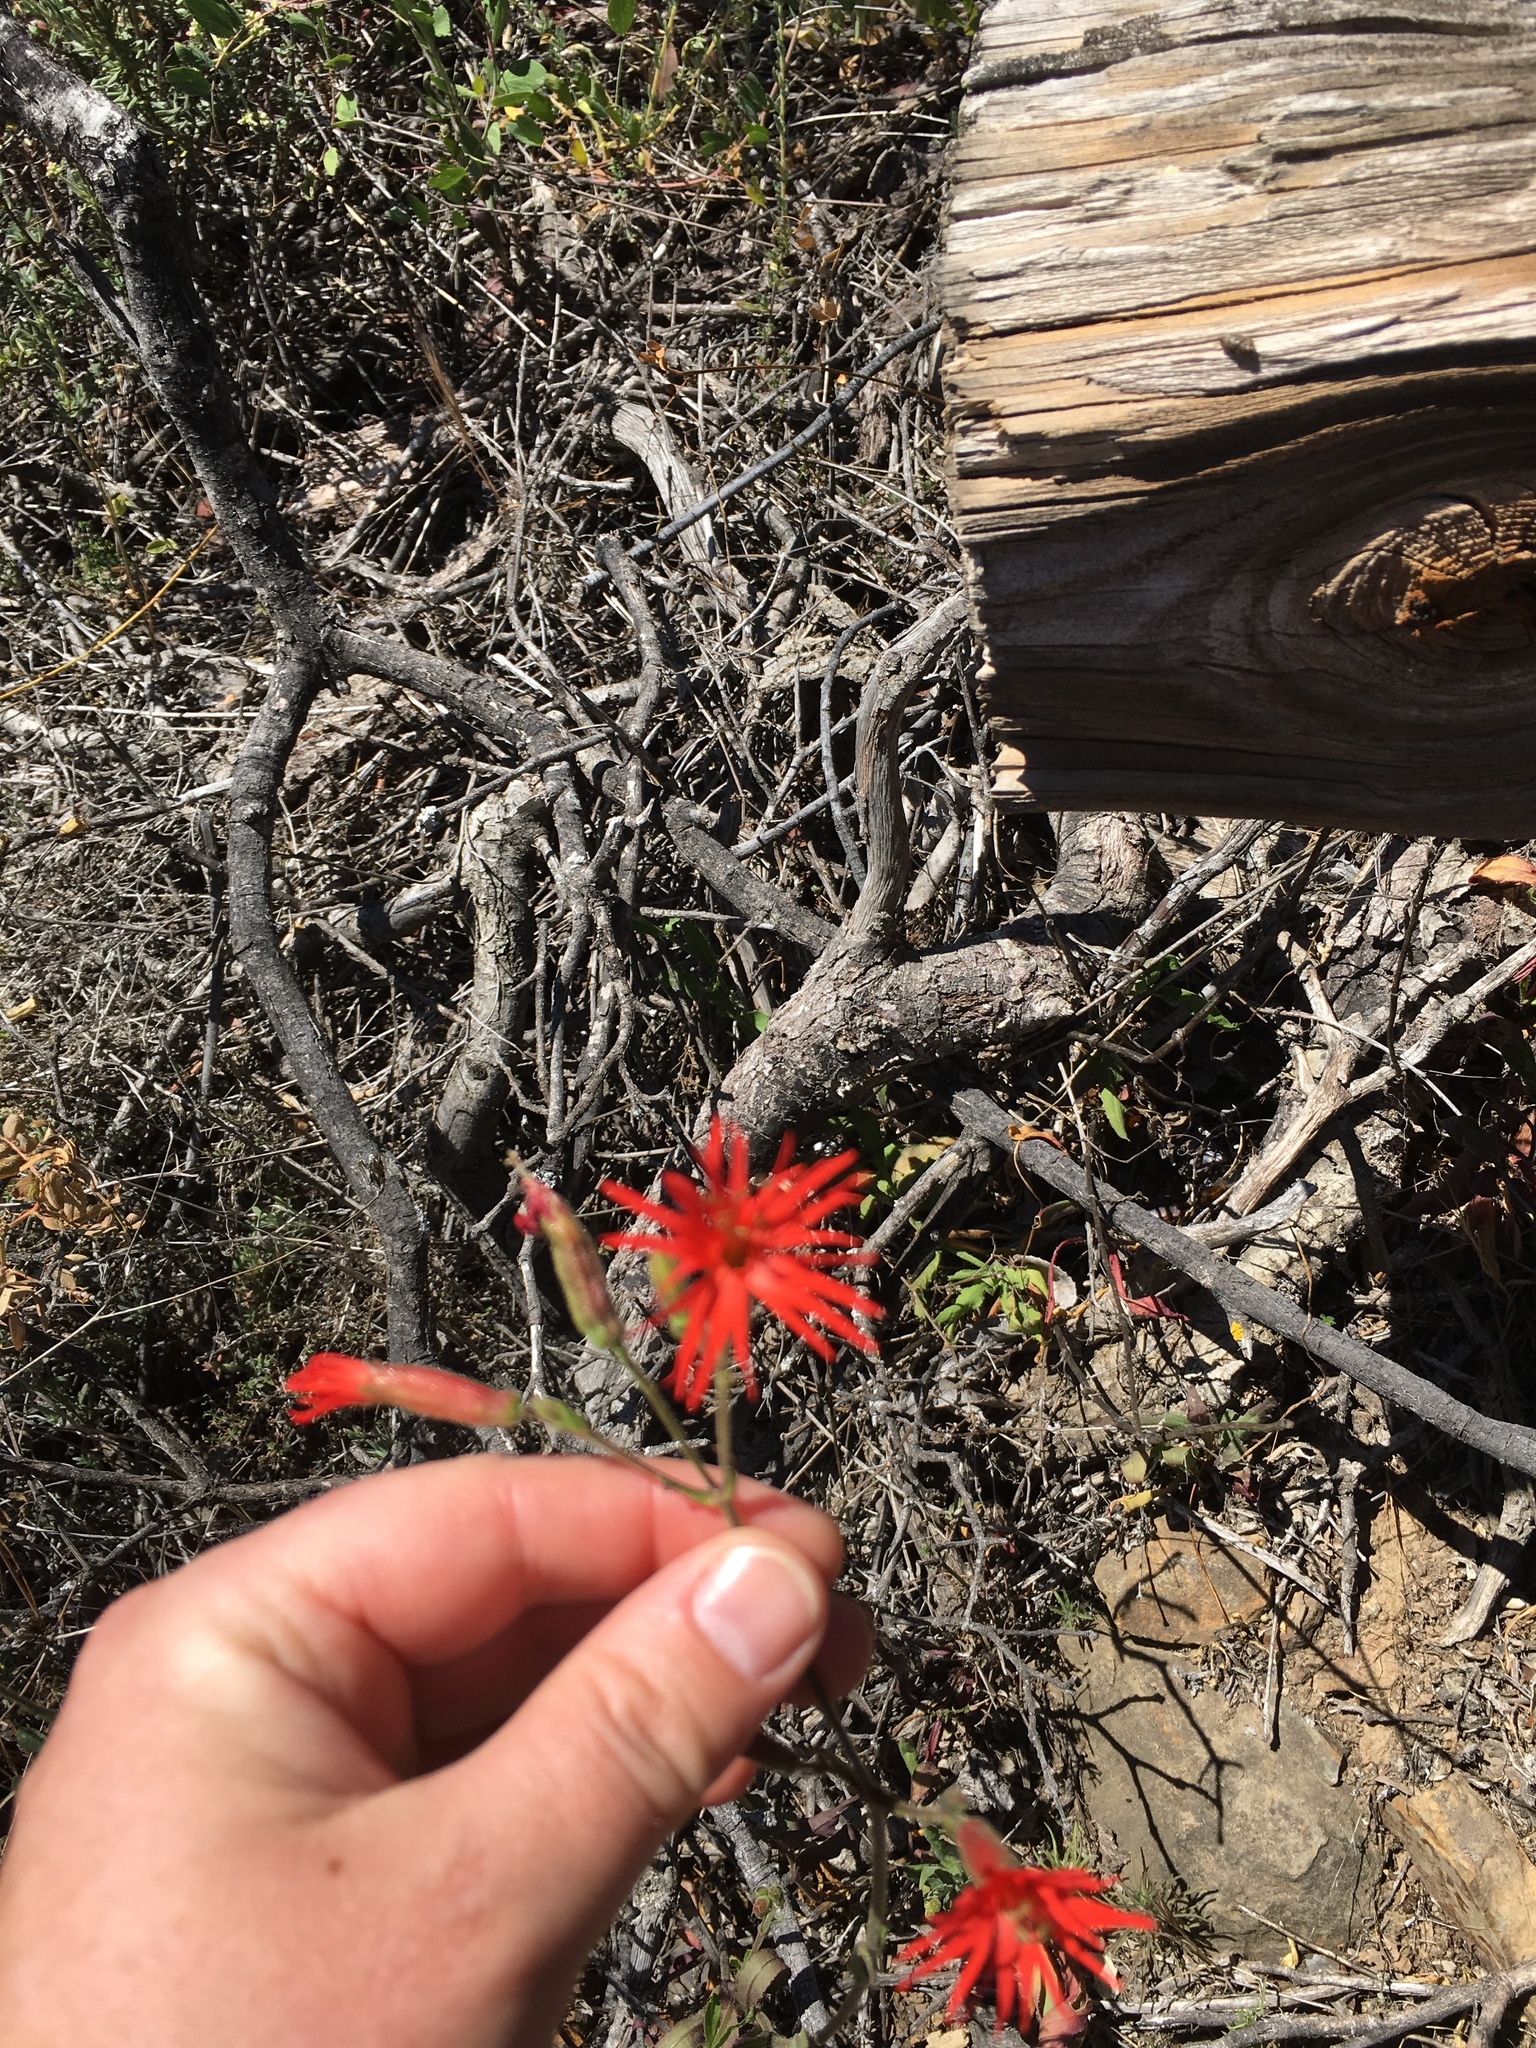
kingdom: Plantae
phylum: Tracheophyta
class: Magnoliopsida
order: Caryophyllales
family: Caryophyllaceae
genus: Silene
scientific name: Silene laciniata
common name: Indian-pink
